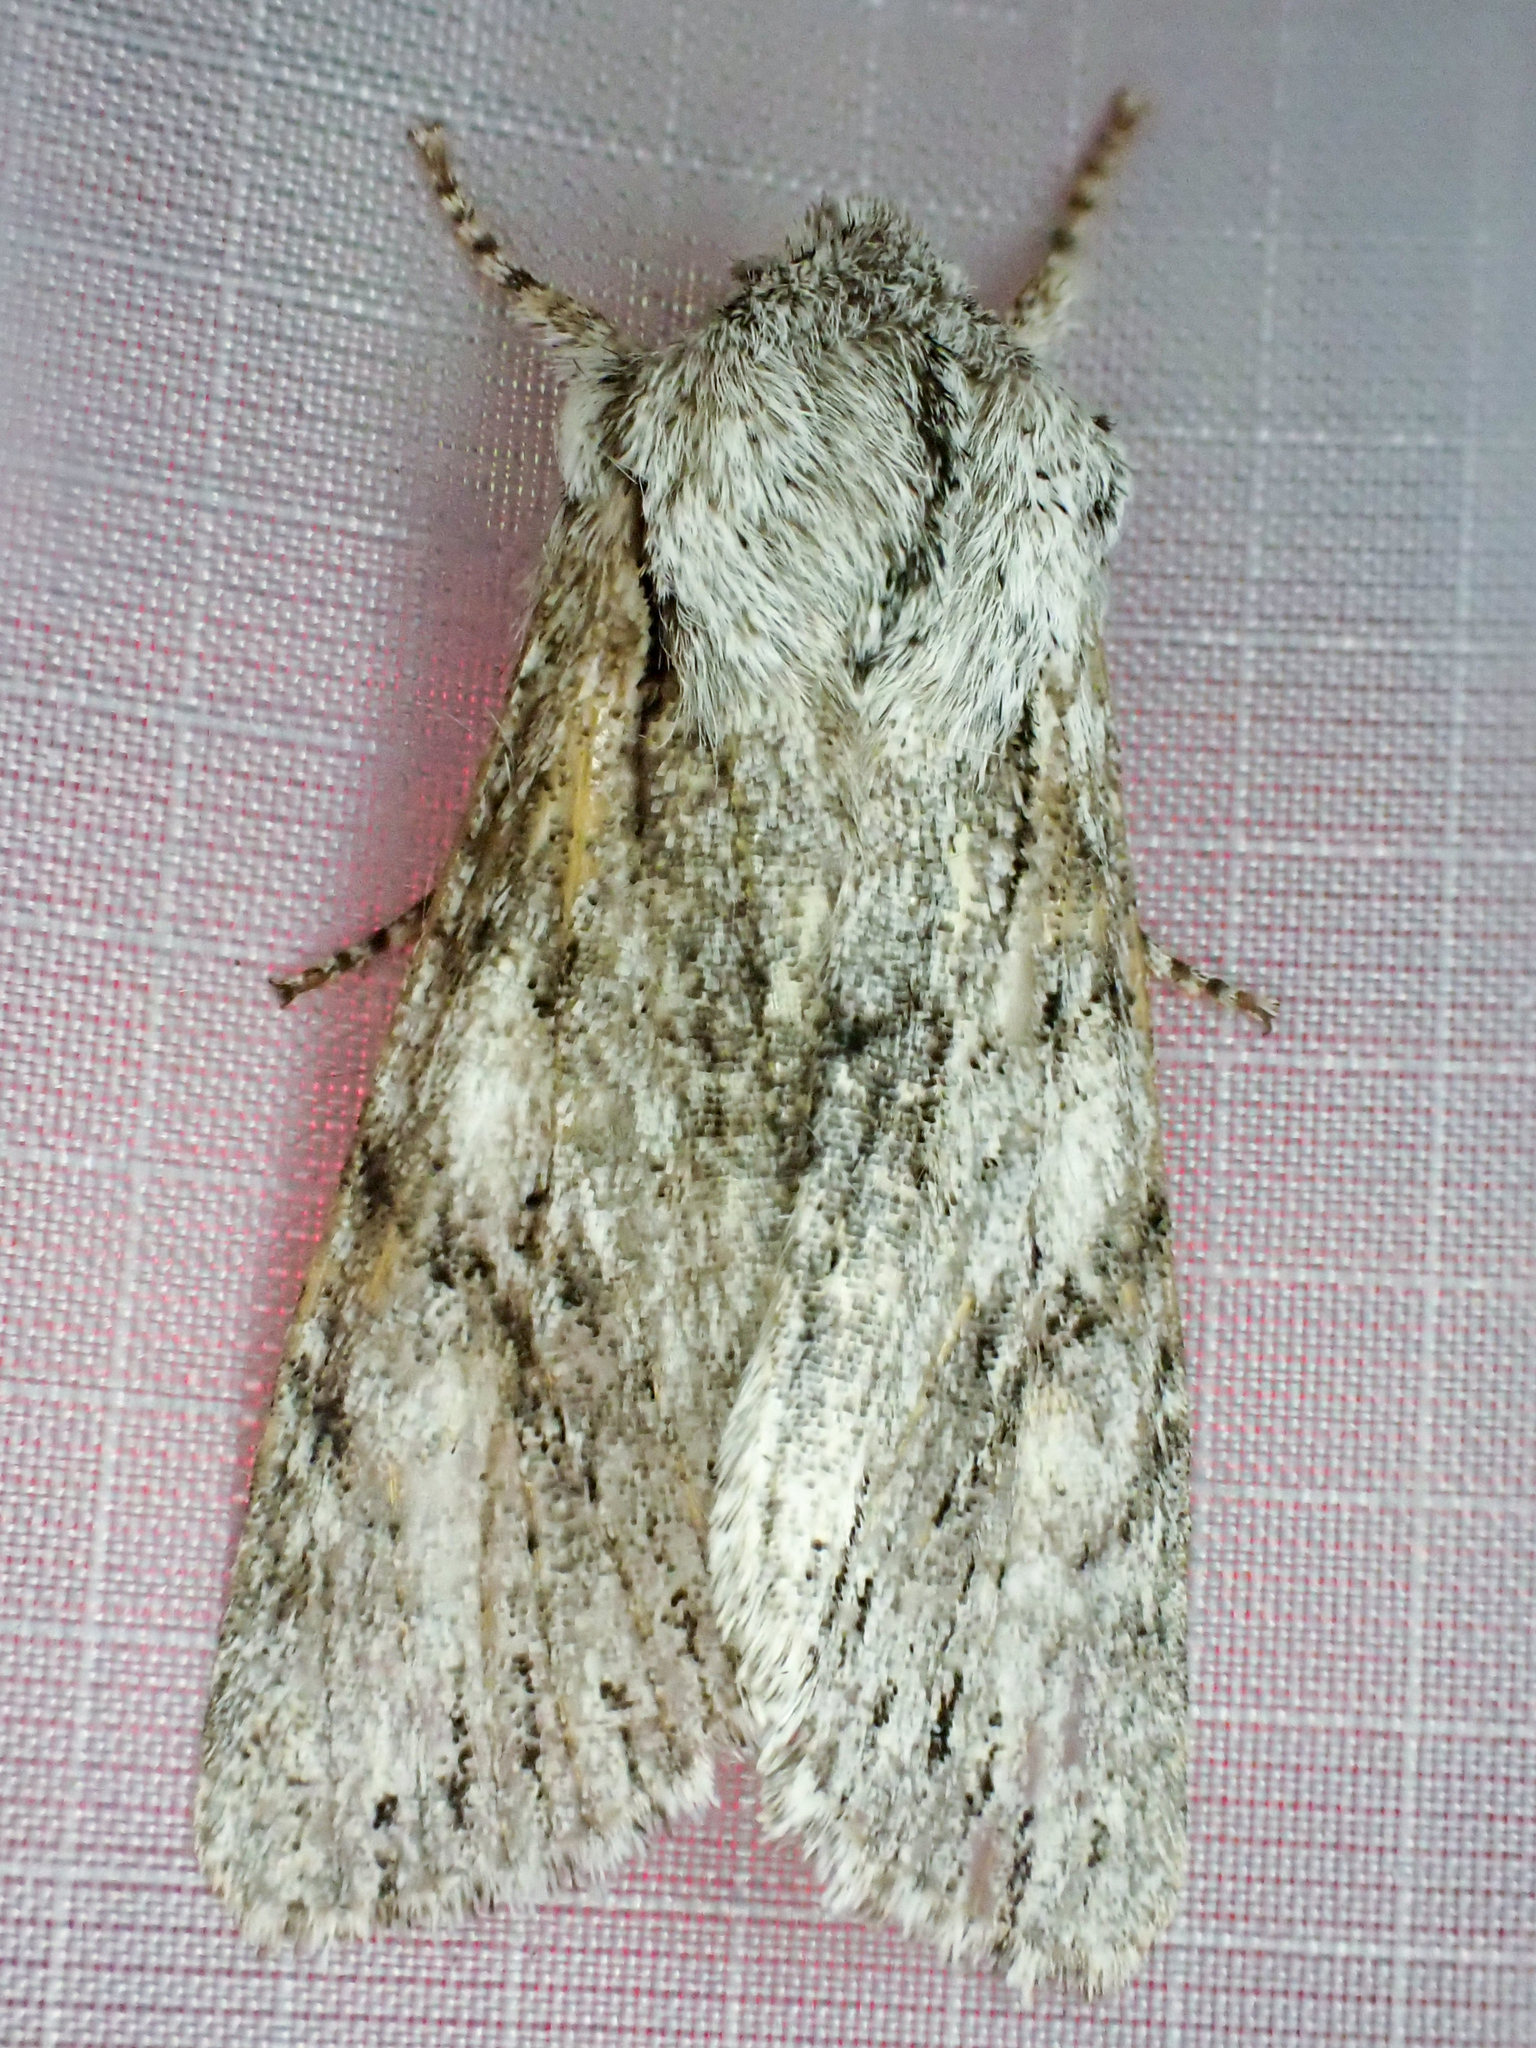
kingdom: Animalia
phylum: Arthropoda
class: Insecta
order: Lepidoptera
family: Noctuidae
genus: Egira
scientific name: Egira simplex
